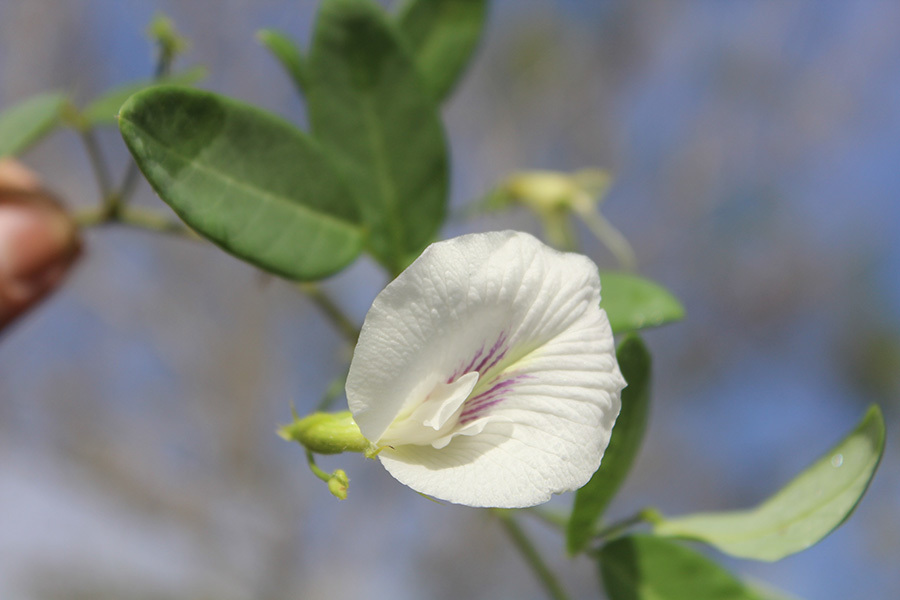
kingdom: Plantae
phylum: Tracheophyta
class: Magnoliopsida
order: Fabales
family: Fabaceae
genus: Clitoria
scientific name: Clitoria mexicana
